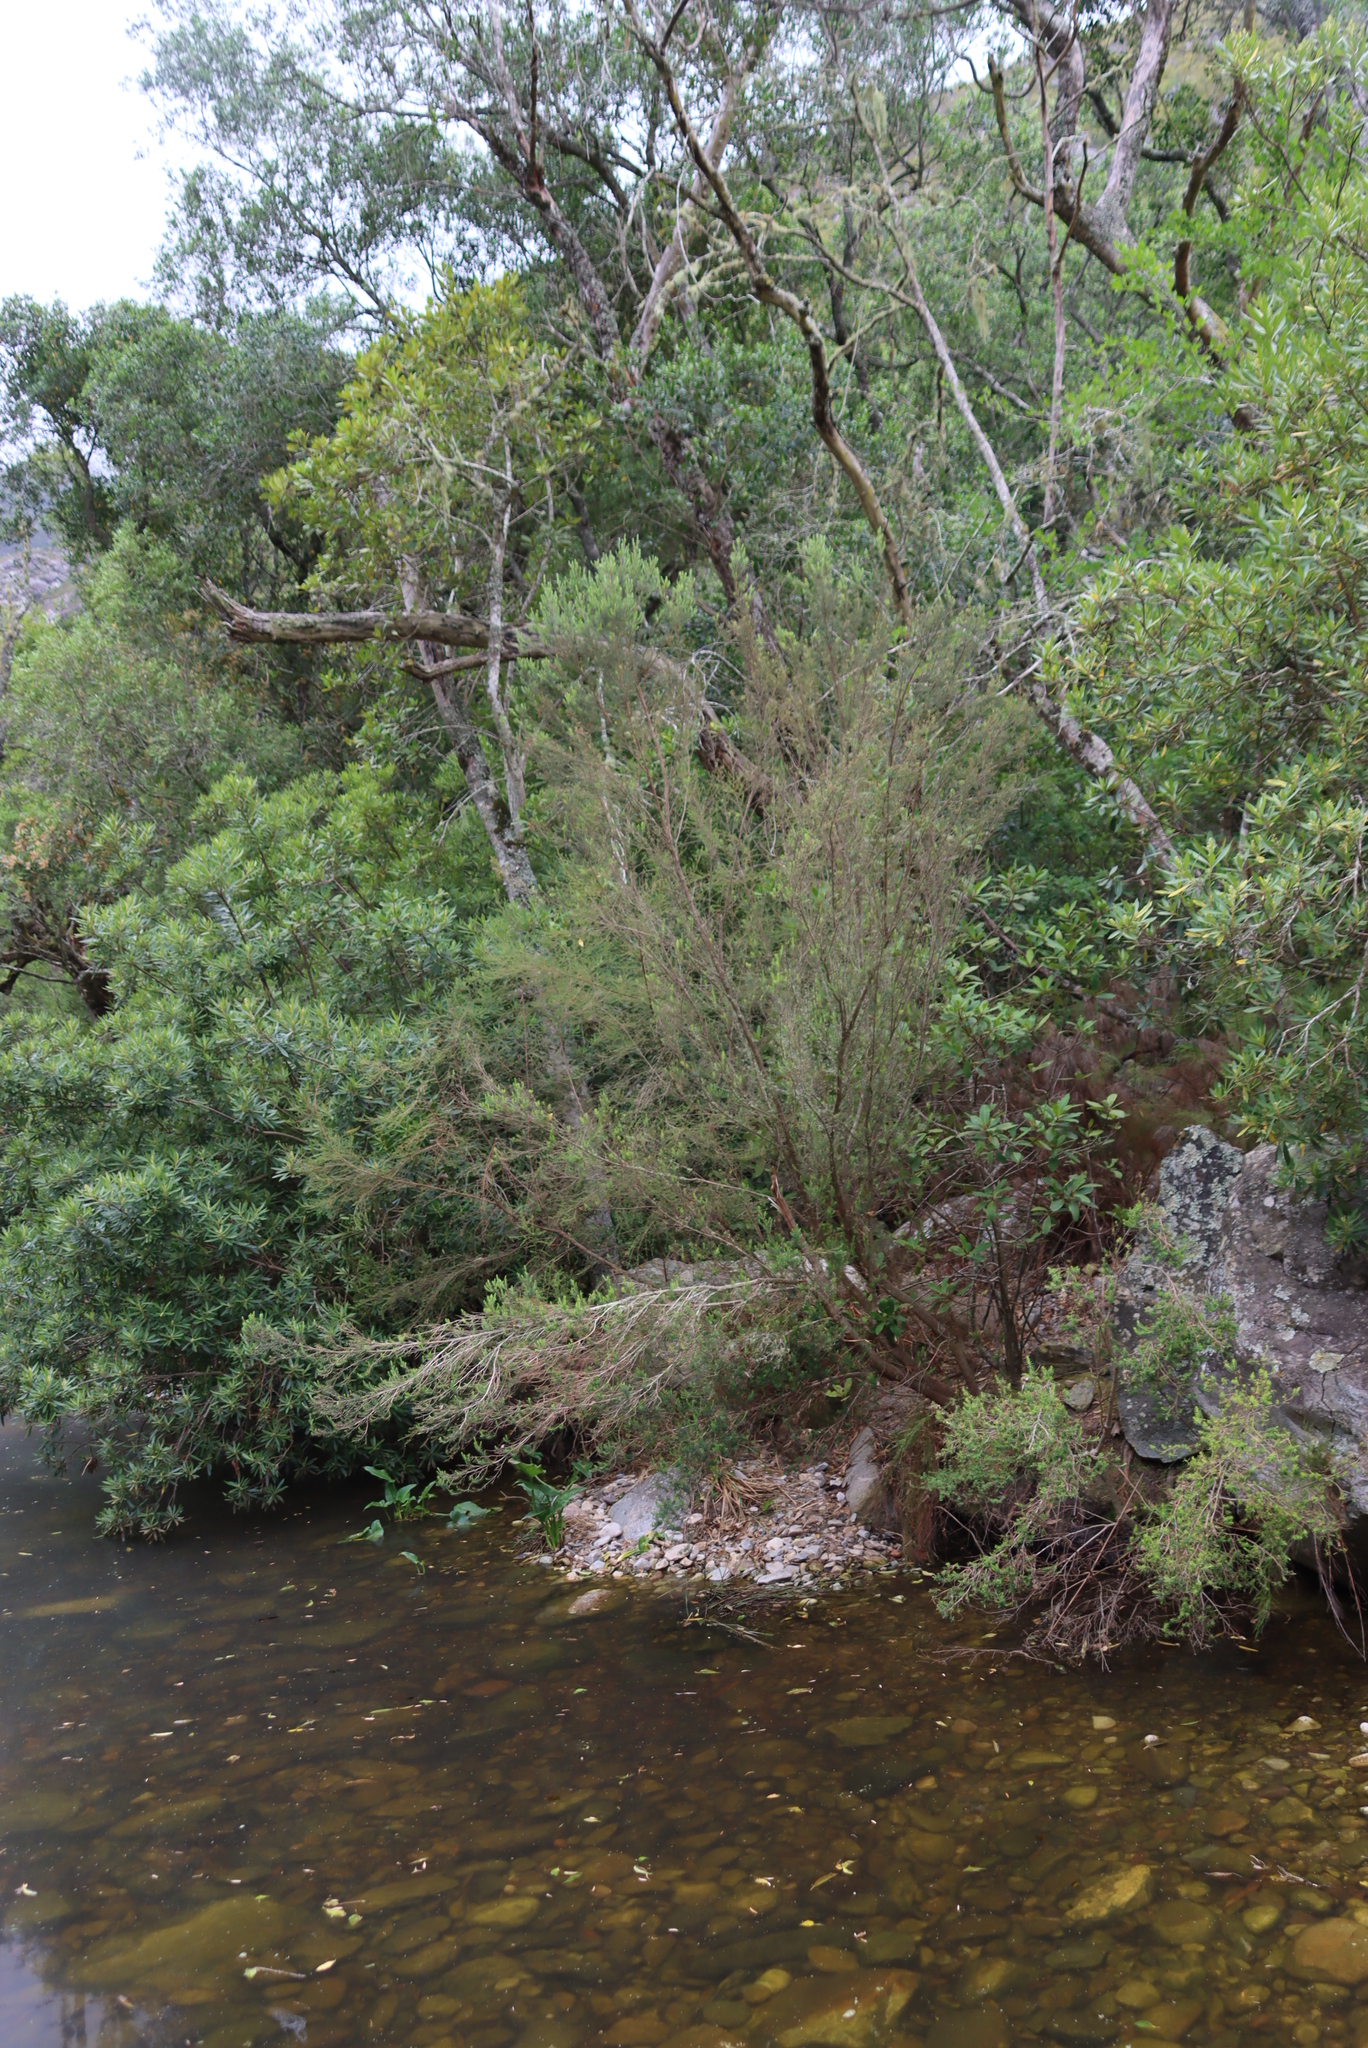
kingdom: Plantae
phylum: Tracheophyta
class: Magnoliopsida
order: Ericales
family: Ericaceae
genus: Erica
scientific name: Erica caffra
